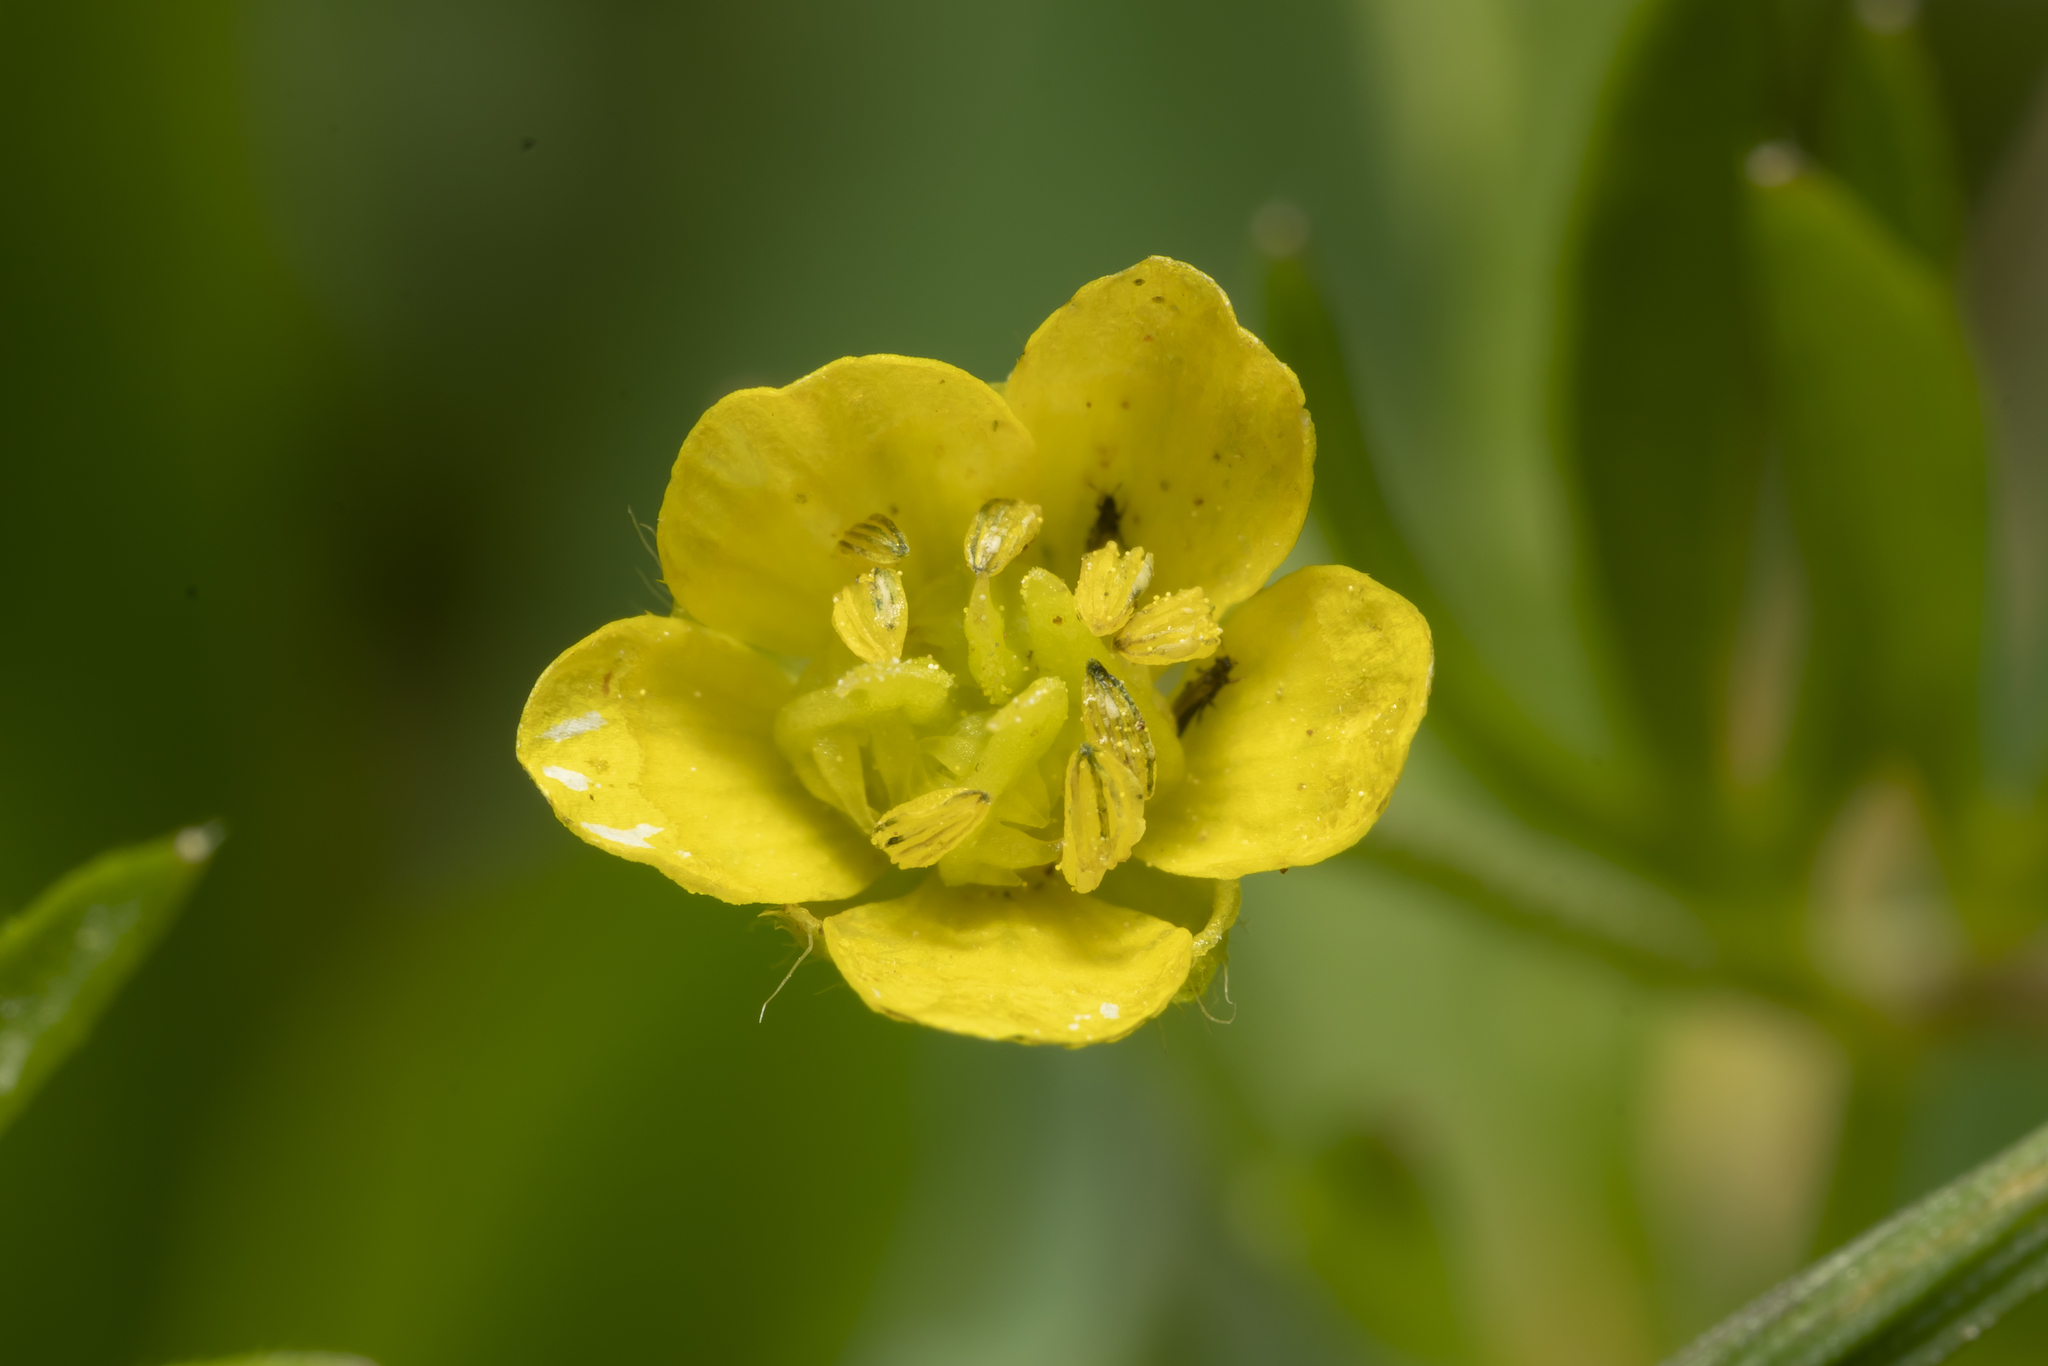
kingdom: Plantae
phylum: Tracheophyta
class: Magnoliopsida
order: Ranunculales
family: Ranunculaceae
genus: Ranunculus
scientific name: Ranunculus arvensis
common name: Corn buttercup
